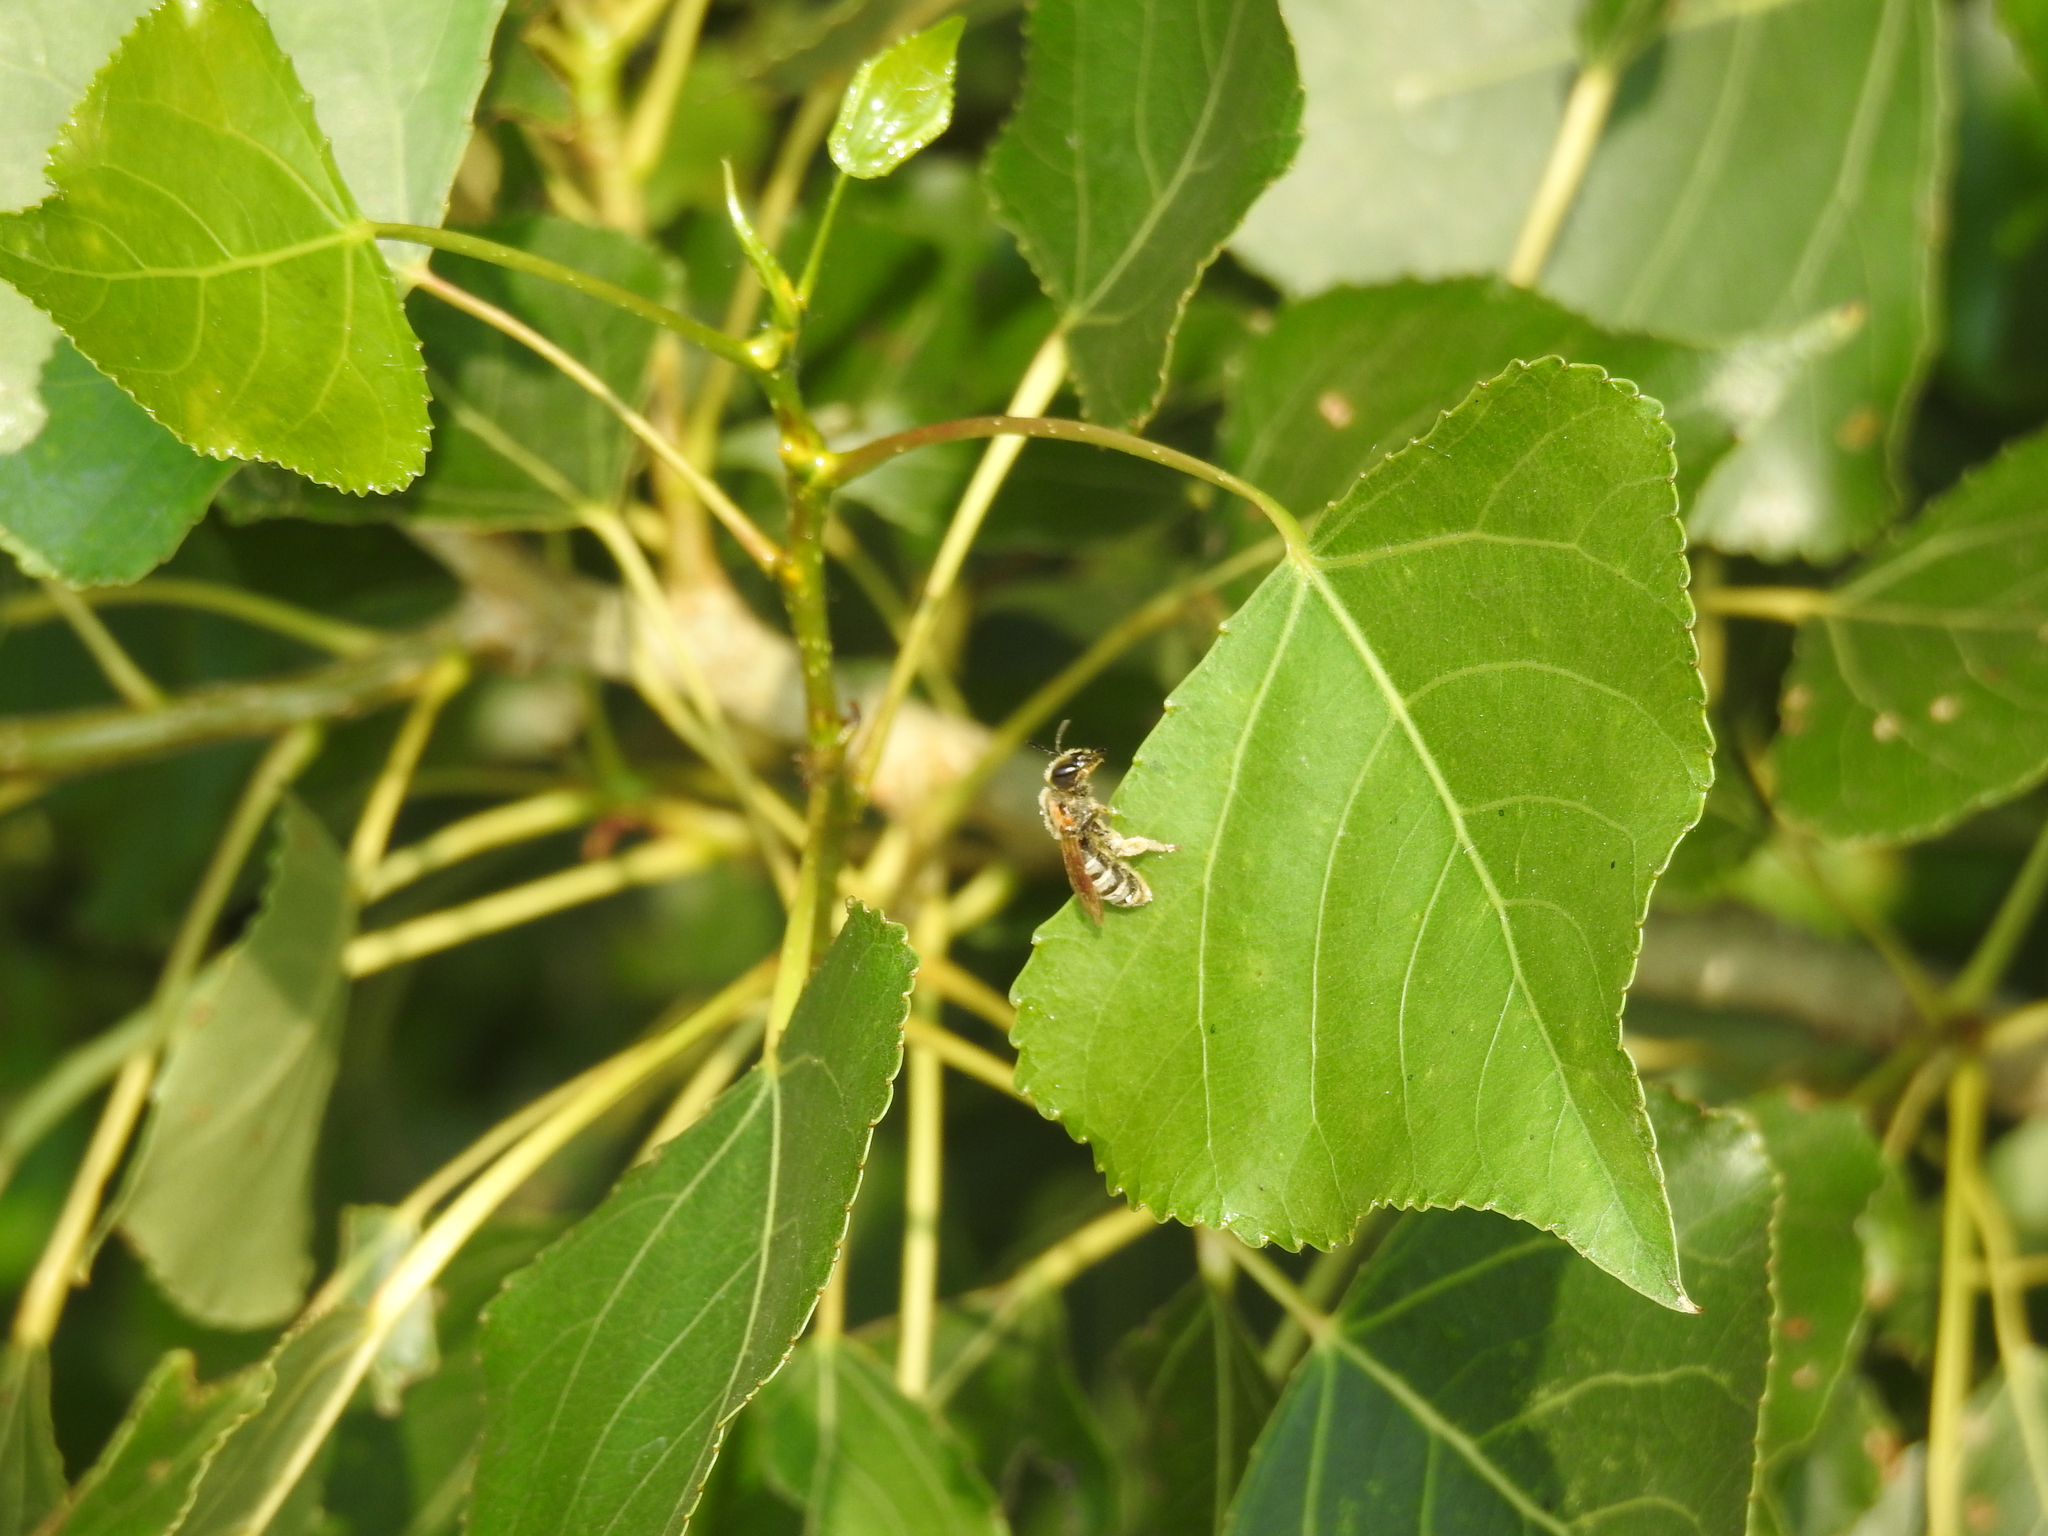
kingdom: Animalia
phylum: Arthropoda
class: Insecta
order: Hymenoptera
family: Halictidae
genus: Halictus
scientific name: Halictus scabiosae
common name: Great banded furrow bee
